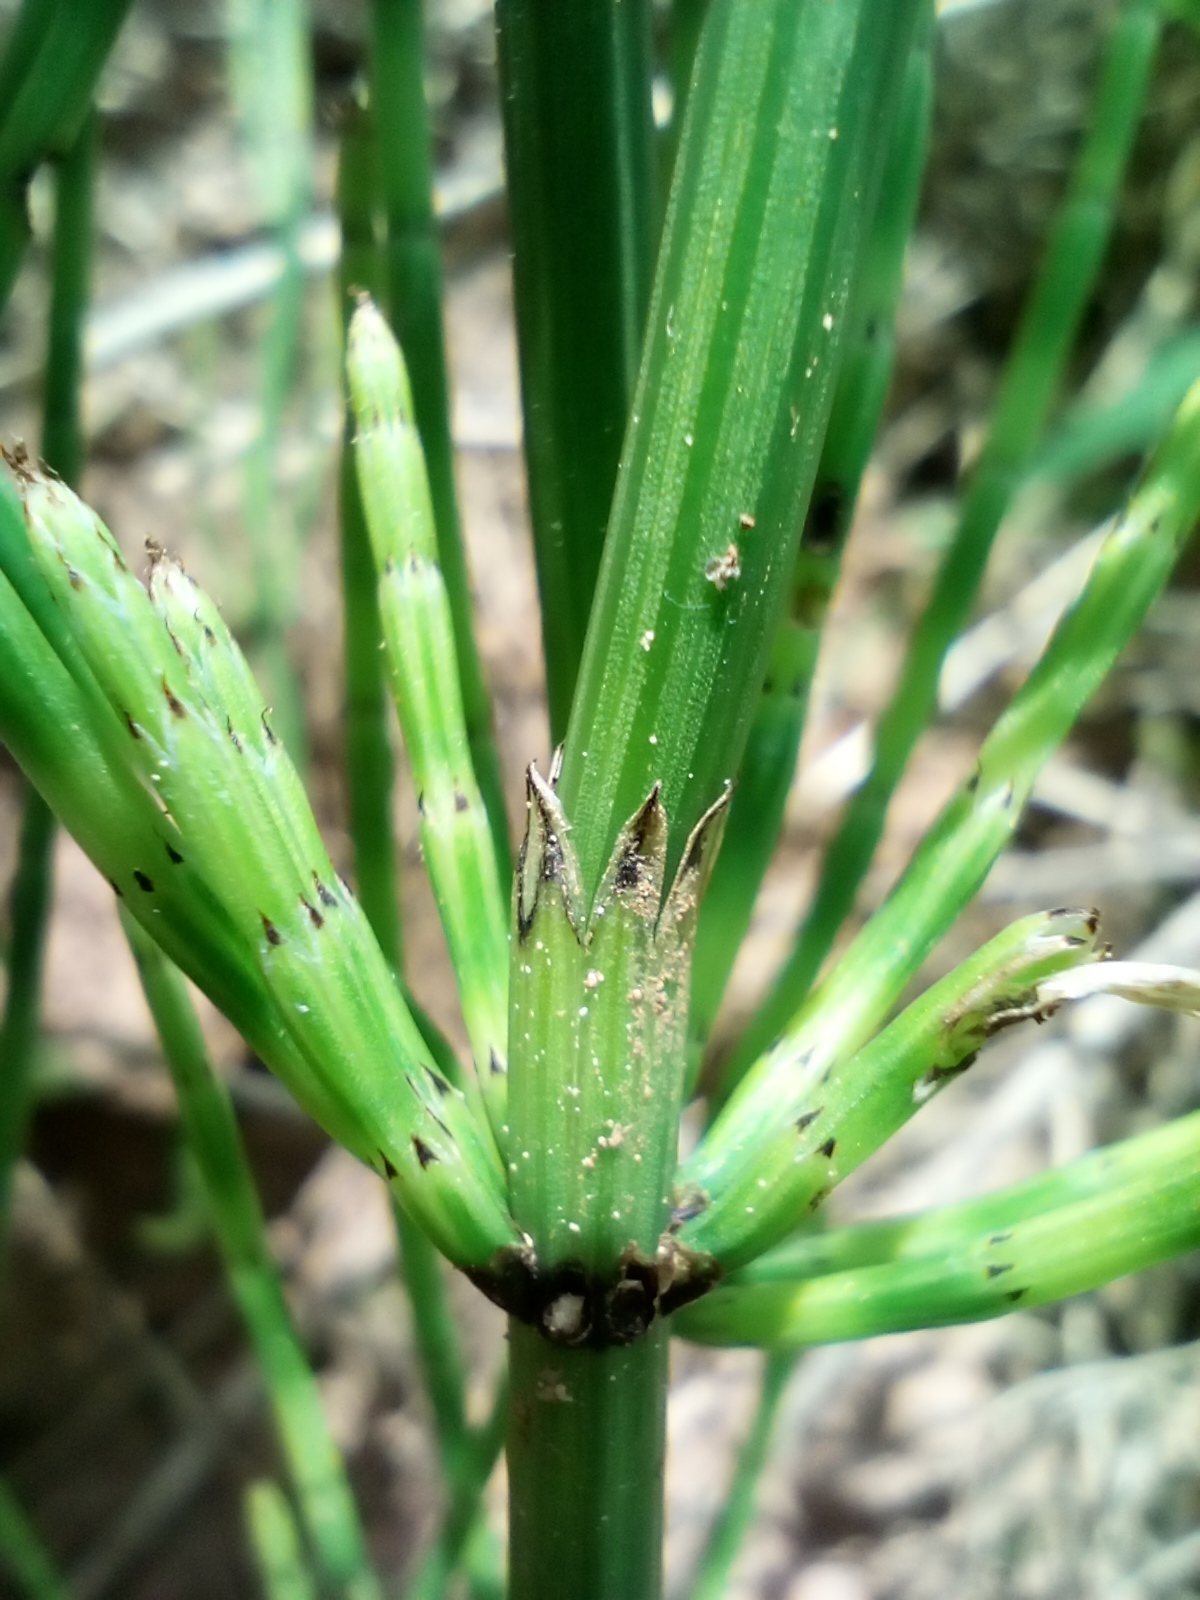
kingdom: Plantae
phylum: Tracheophyta
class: Polypodiopsida
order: Equisetales
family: Equisetaceae
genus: Equisetum
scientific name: Equisetum palustre
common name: Marsh horsetail
